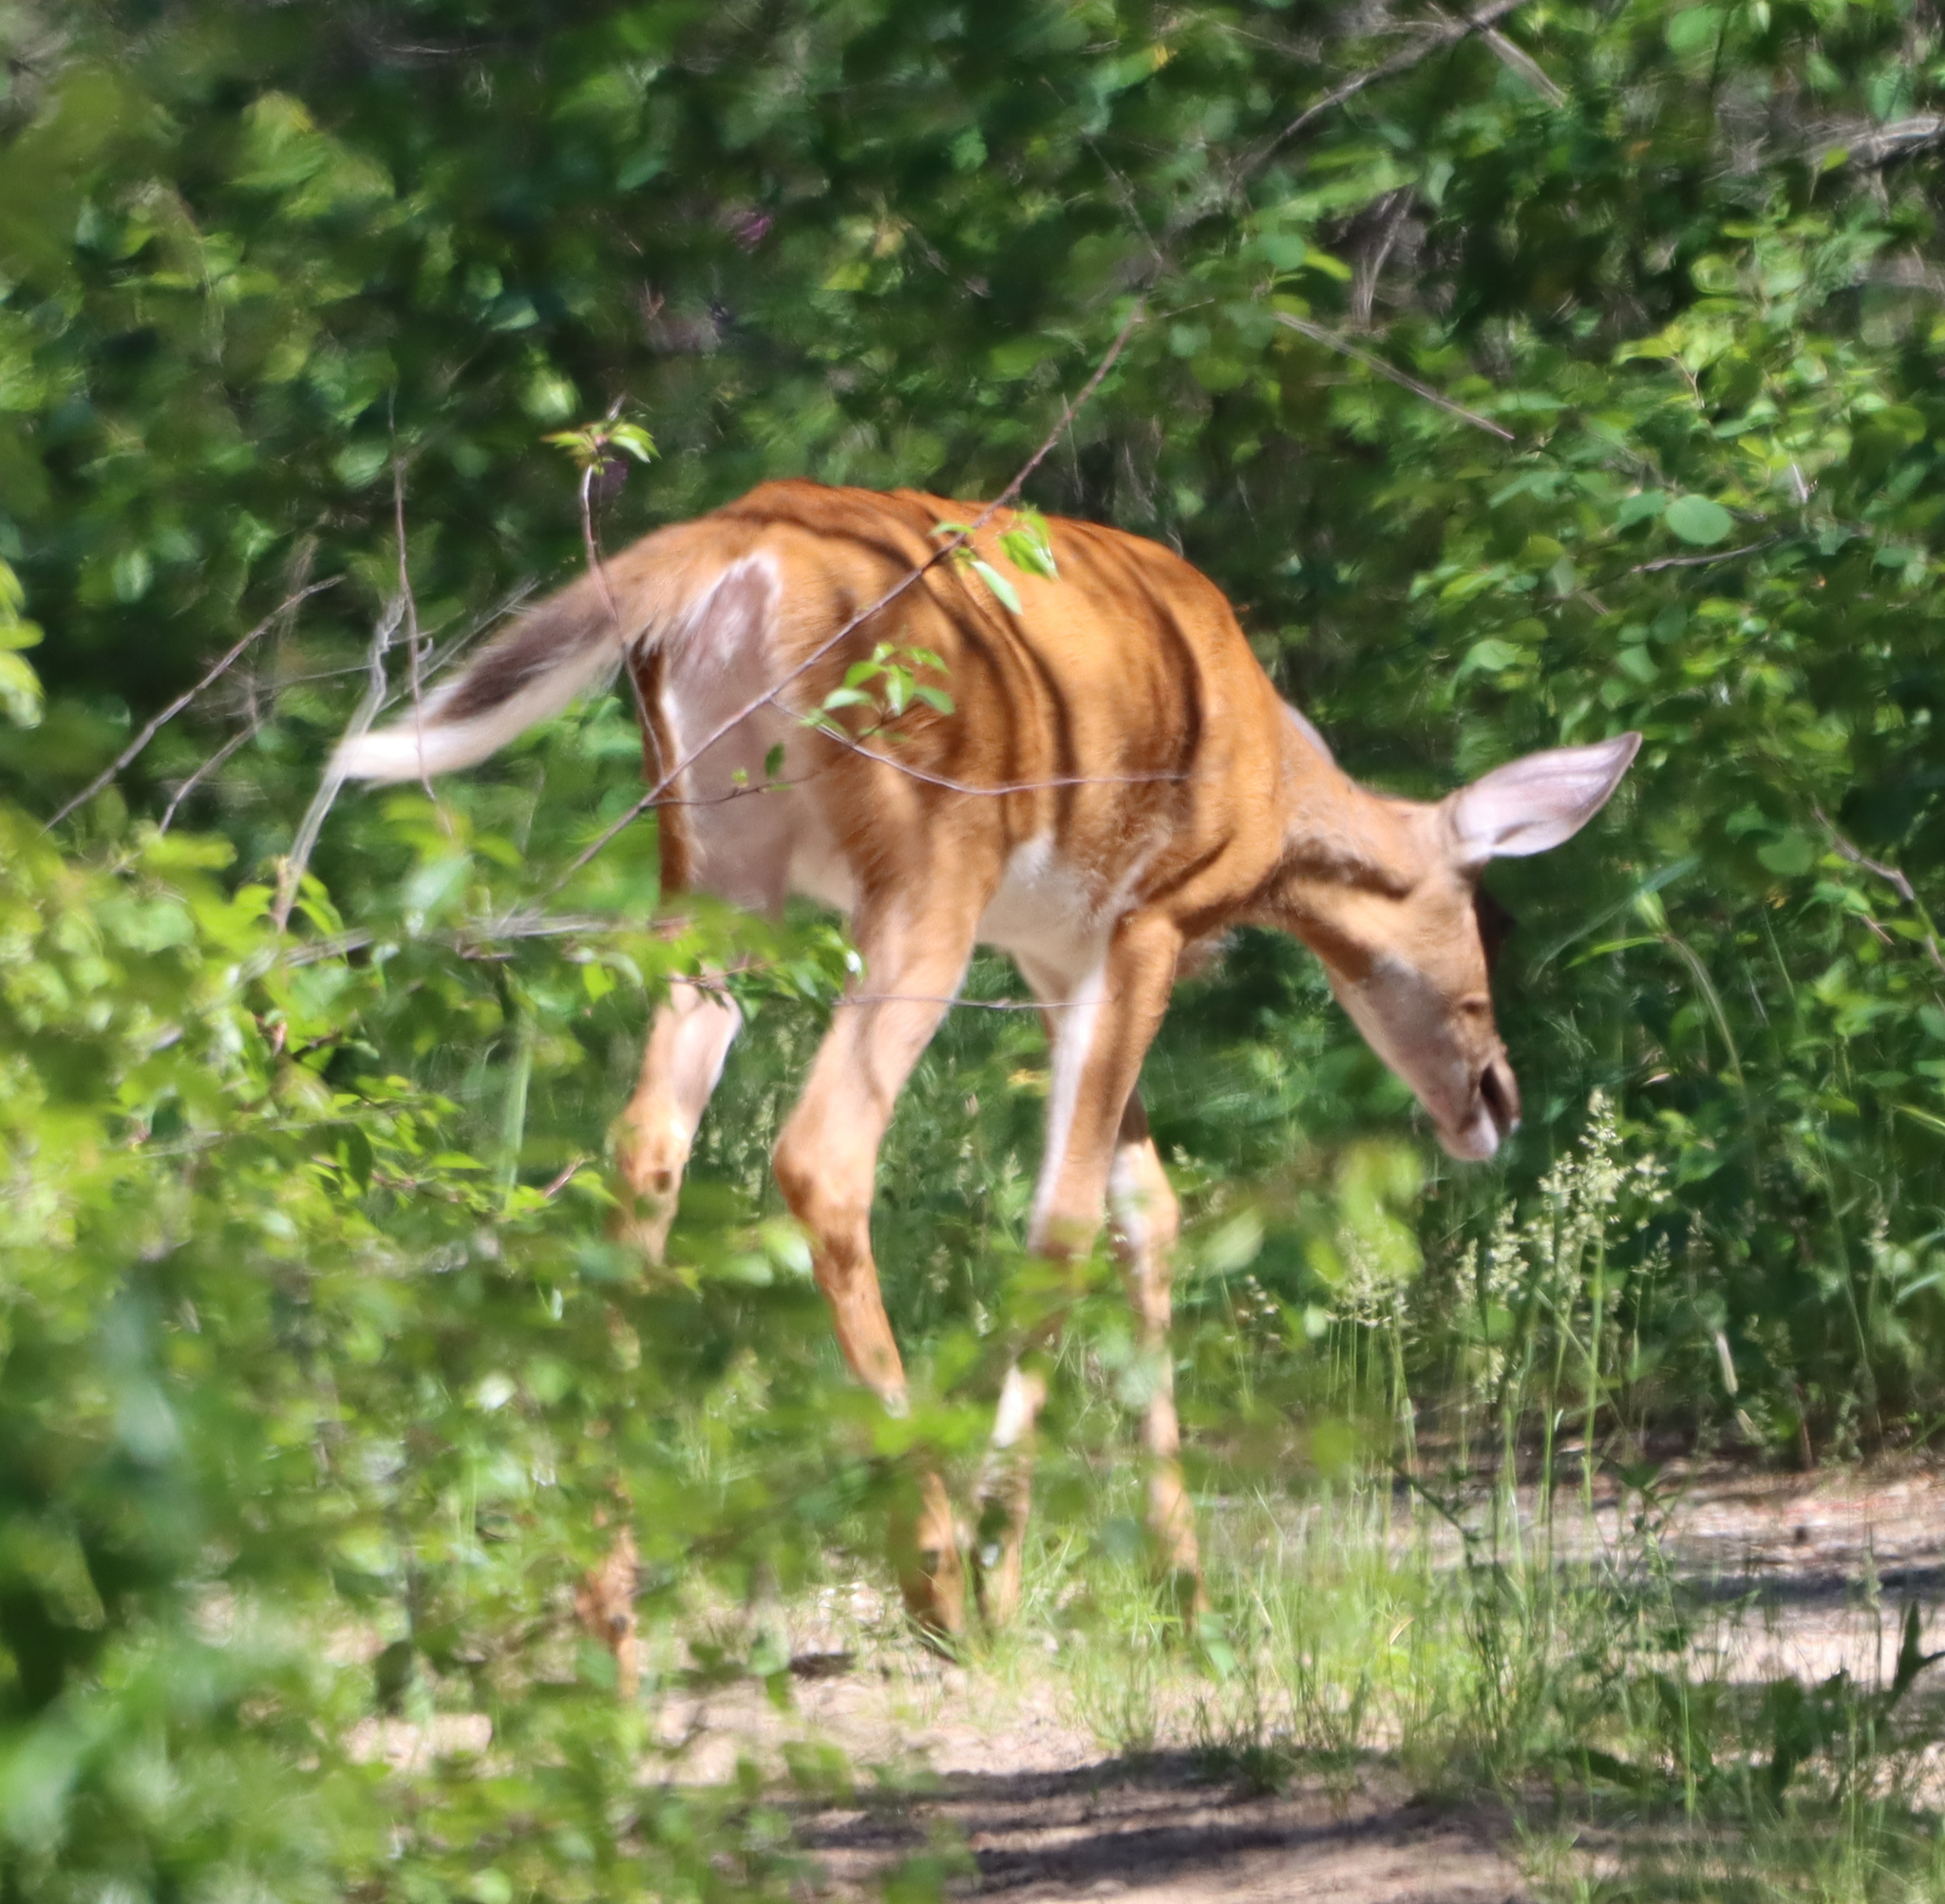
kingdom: Animalia
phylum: Chordata
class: Mammalia
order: Artiodactyla
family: Cervidae
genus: Odocoileus
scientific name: Odocoileus virginianus
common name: White-tailed deer
